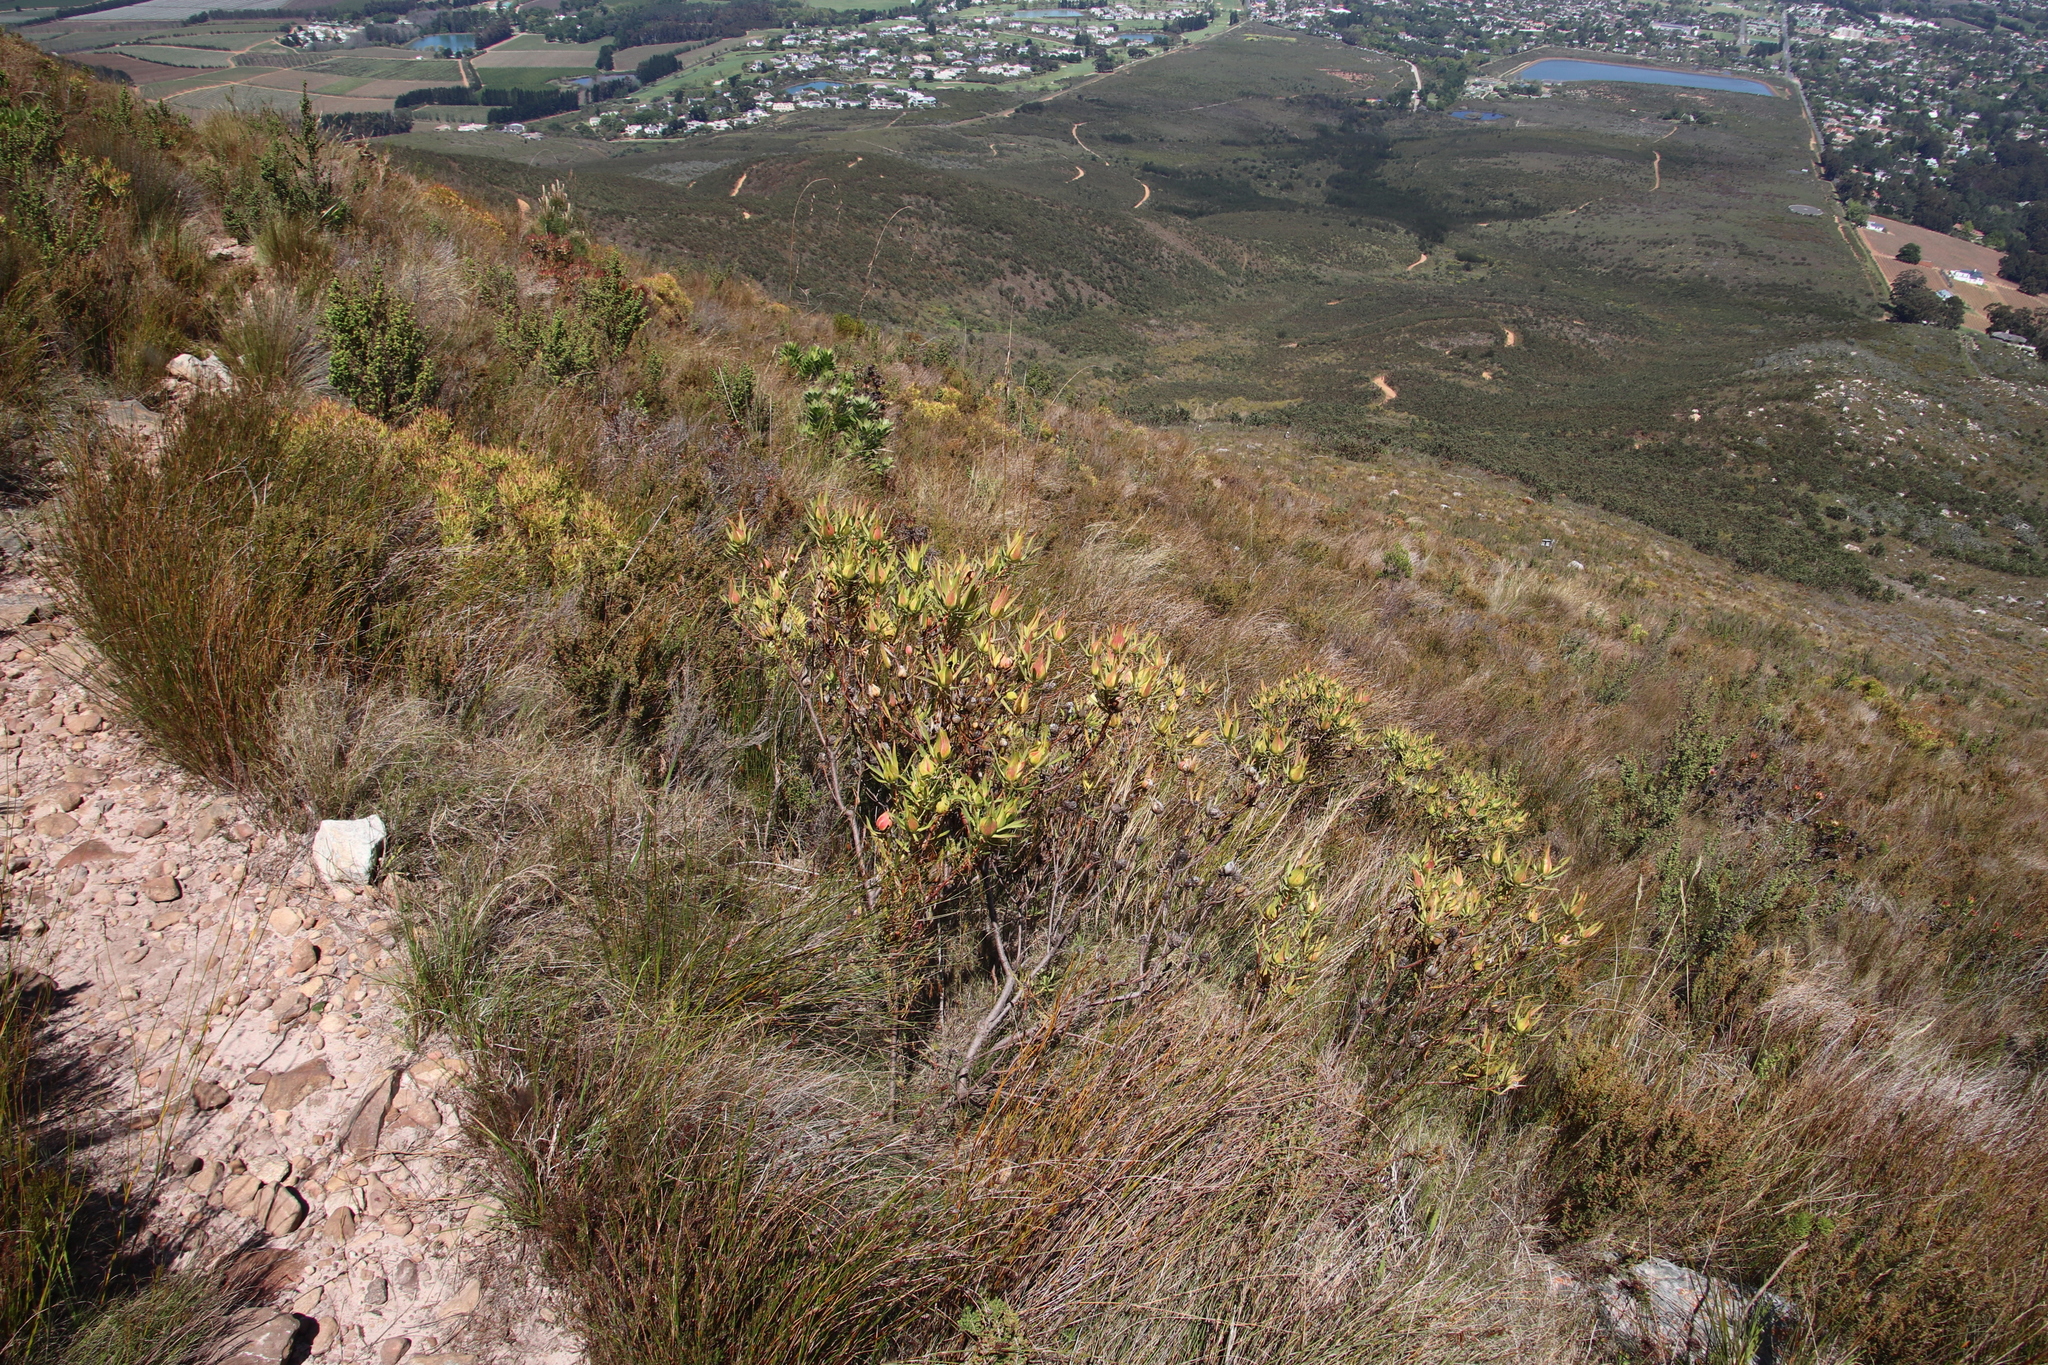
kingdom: Plantae
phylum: Tracheophyta
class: Magnoliopsida
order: Proteales
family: Proteaceae
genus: Leucadendron
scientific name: Leucadendron salignum
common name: Common sunshine conebush
